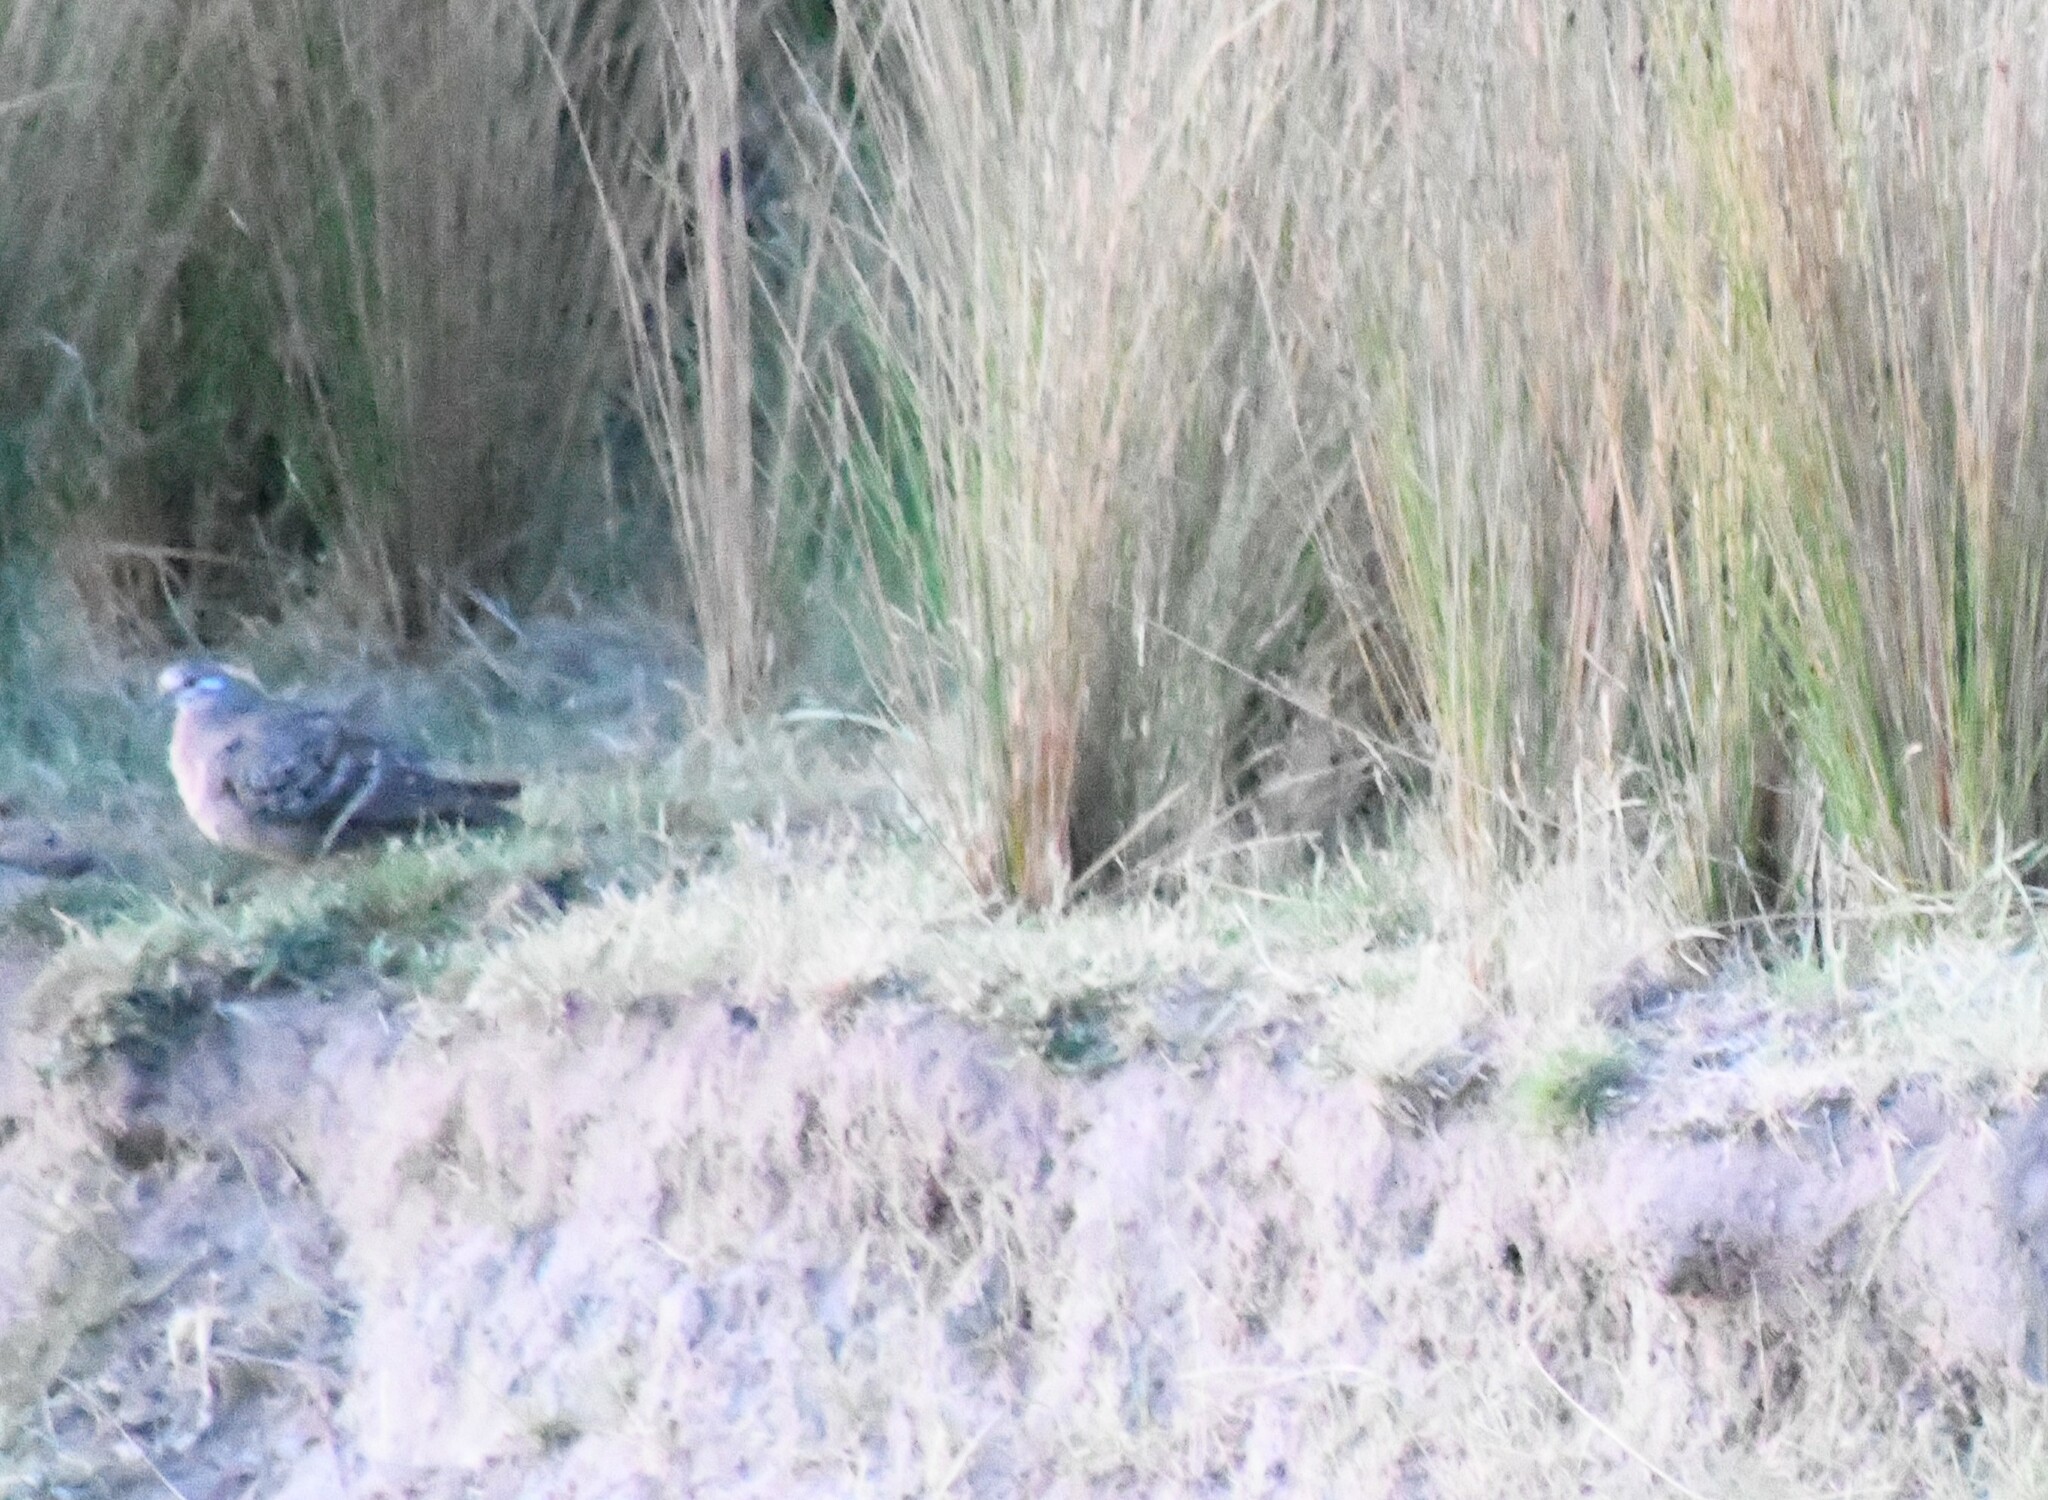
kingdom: Animalia
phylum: Chordata
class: Aves
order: Columbiformes
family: Columbidae
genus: Phaps
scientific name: Phaps chalcoptera
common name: Common bronzewing
